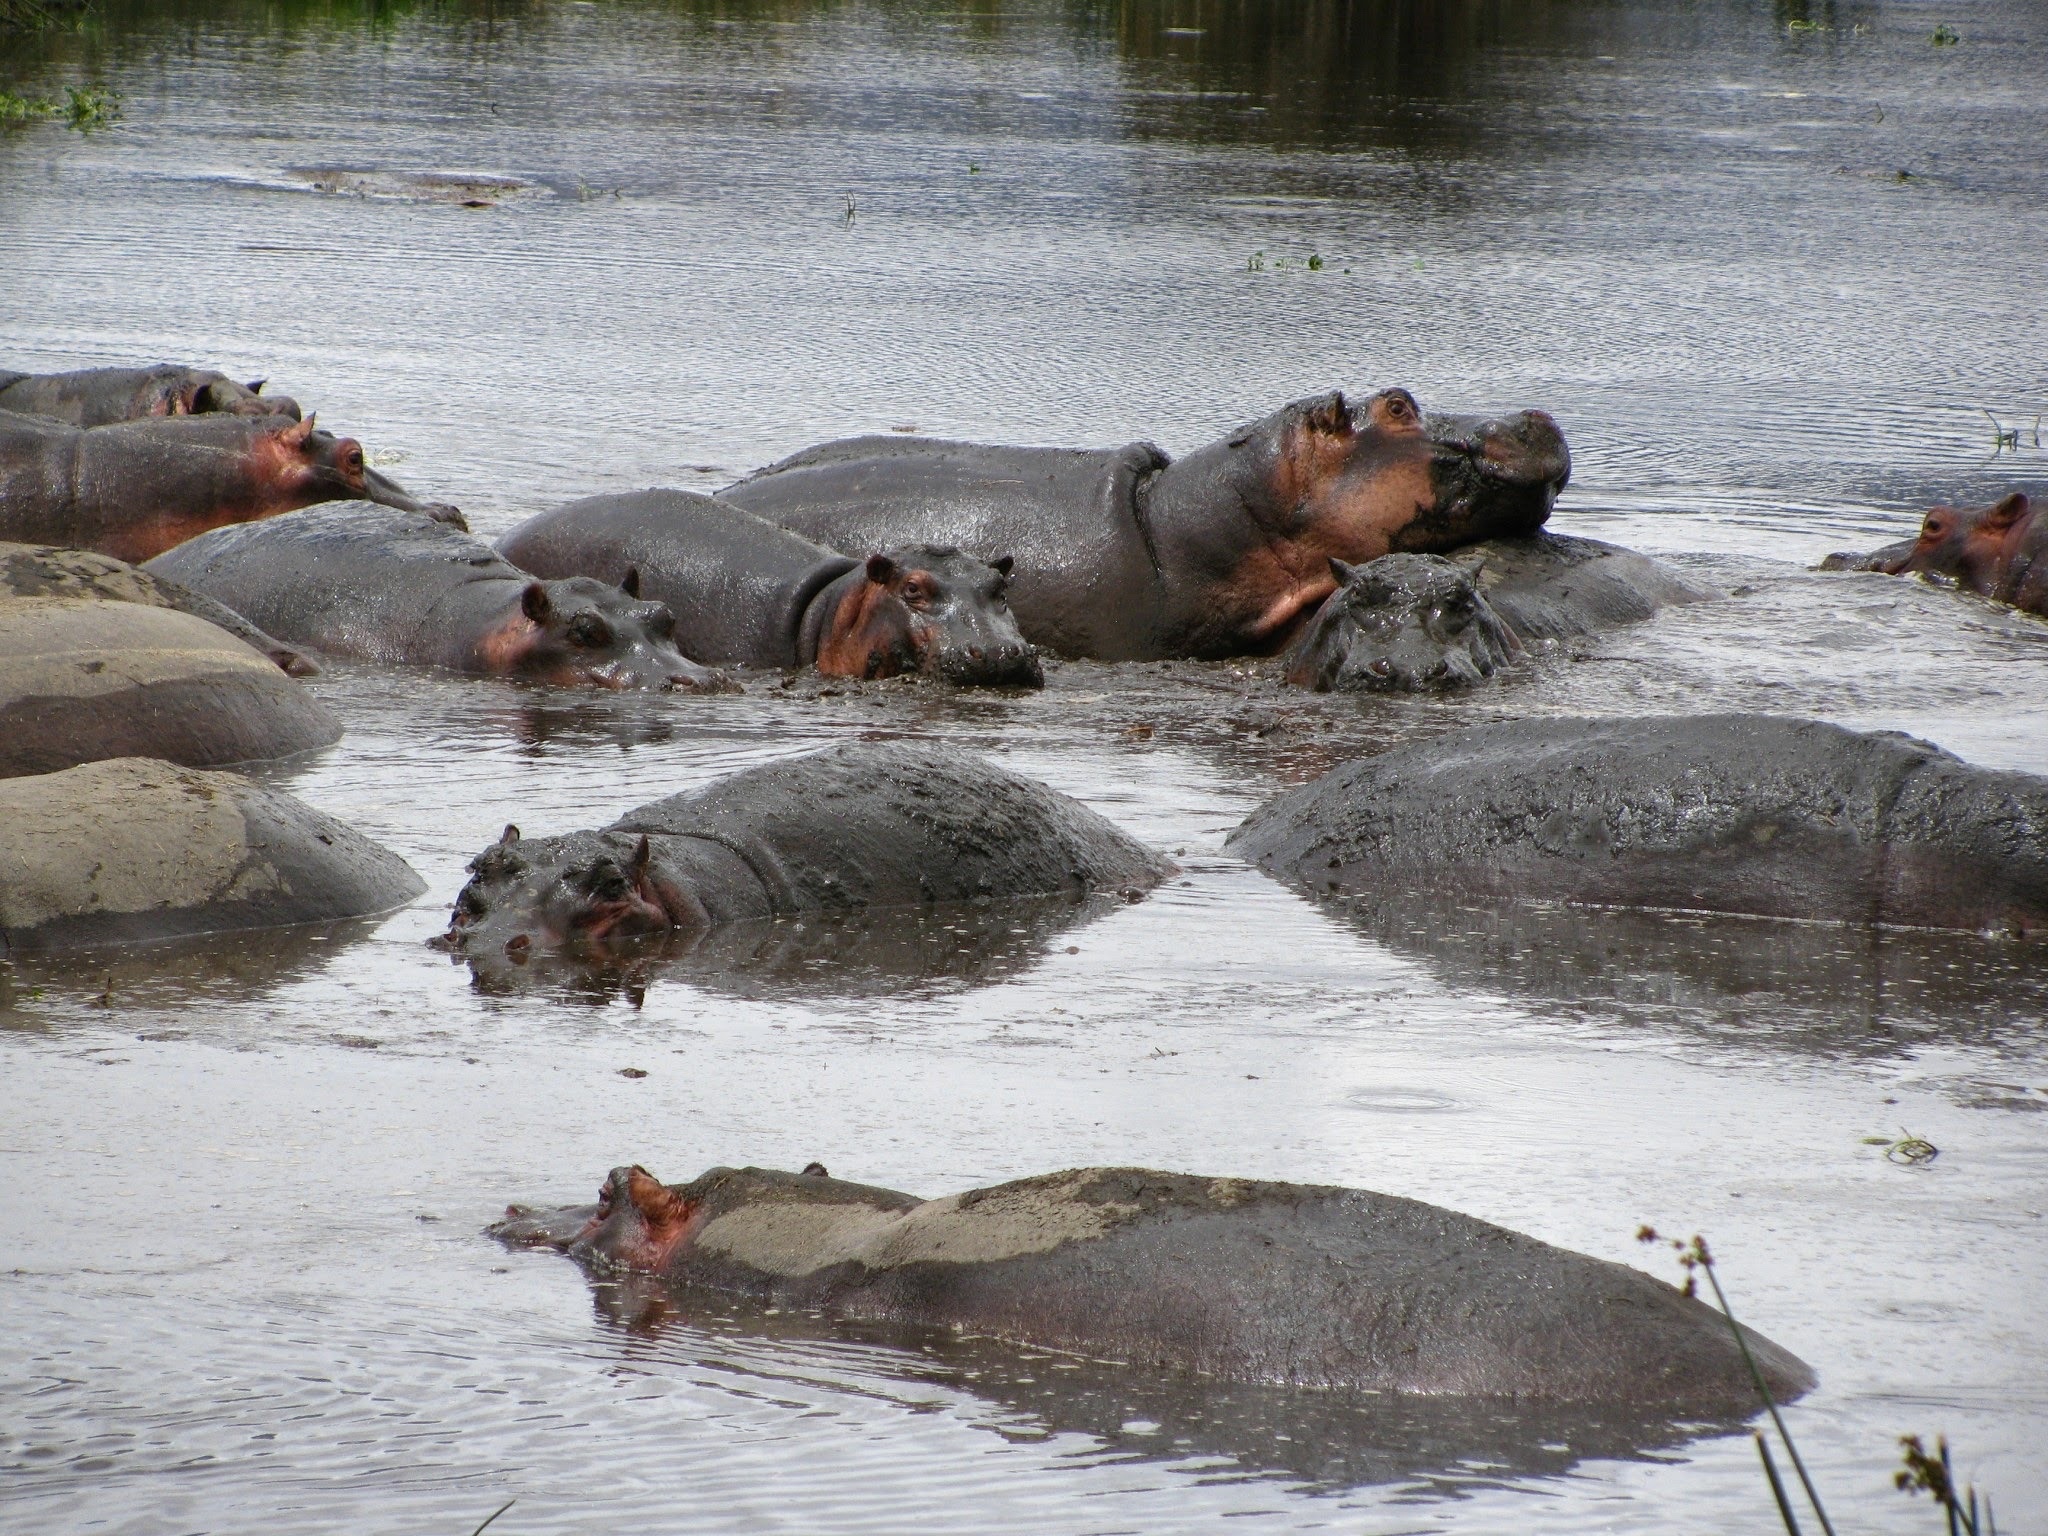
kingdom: Animalia
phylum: Chordata
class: Mammalia
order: Artiodactyla
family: Hippopotamidae
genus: Hippopotamus
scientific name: Hippopotamus amphibius
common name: Common hippopotamus
